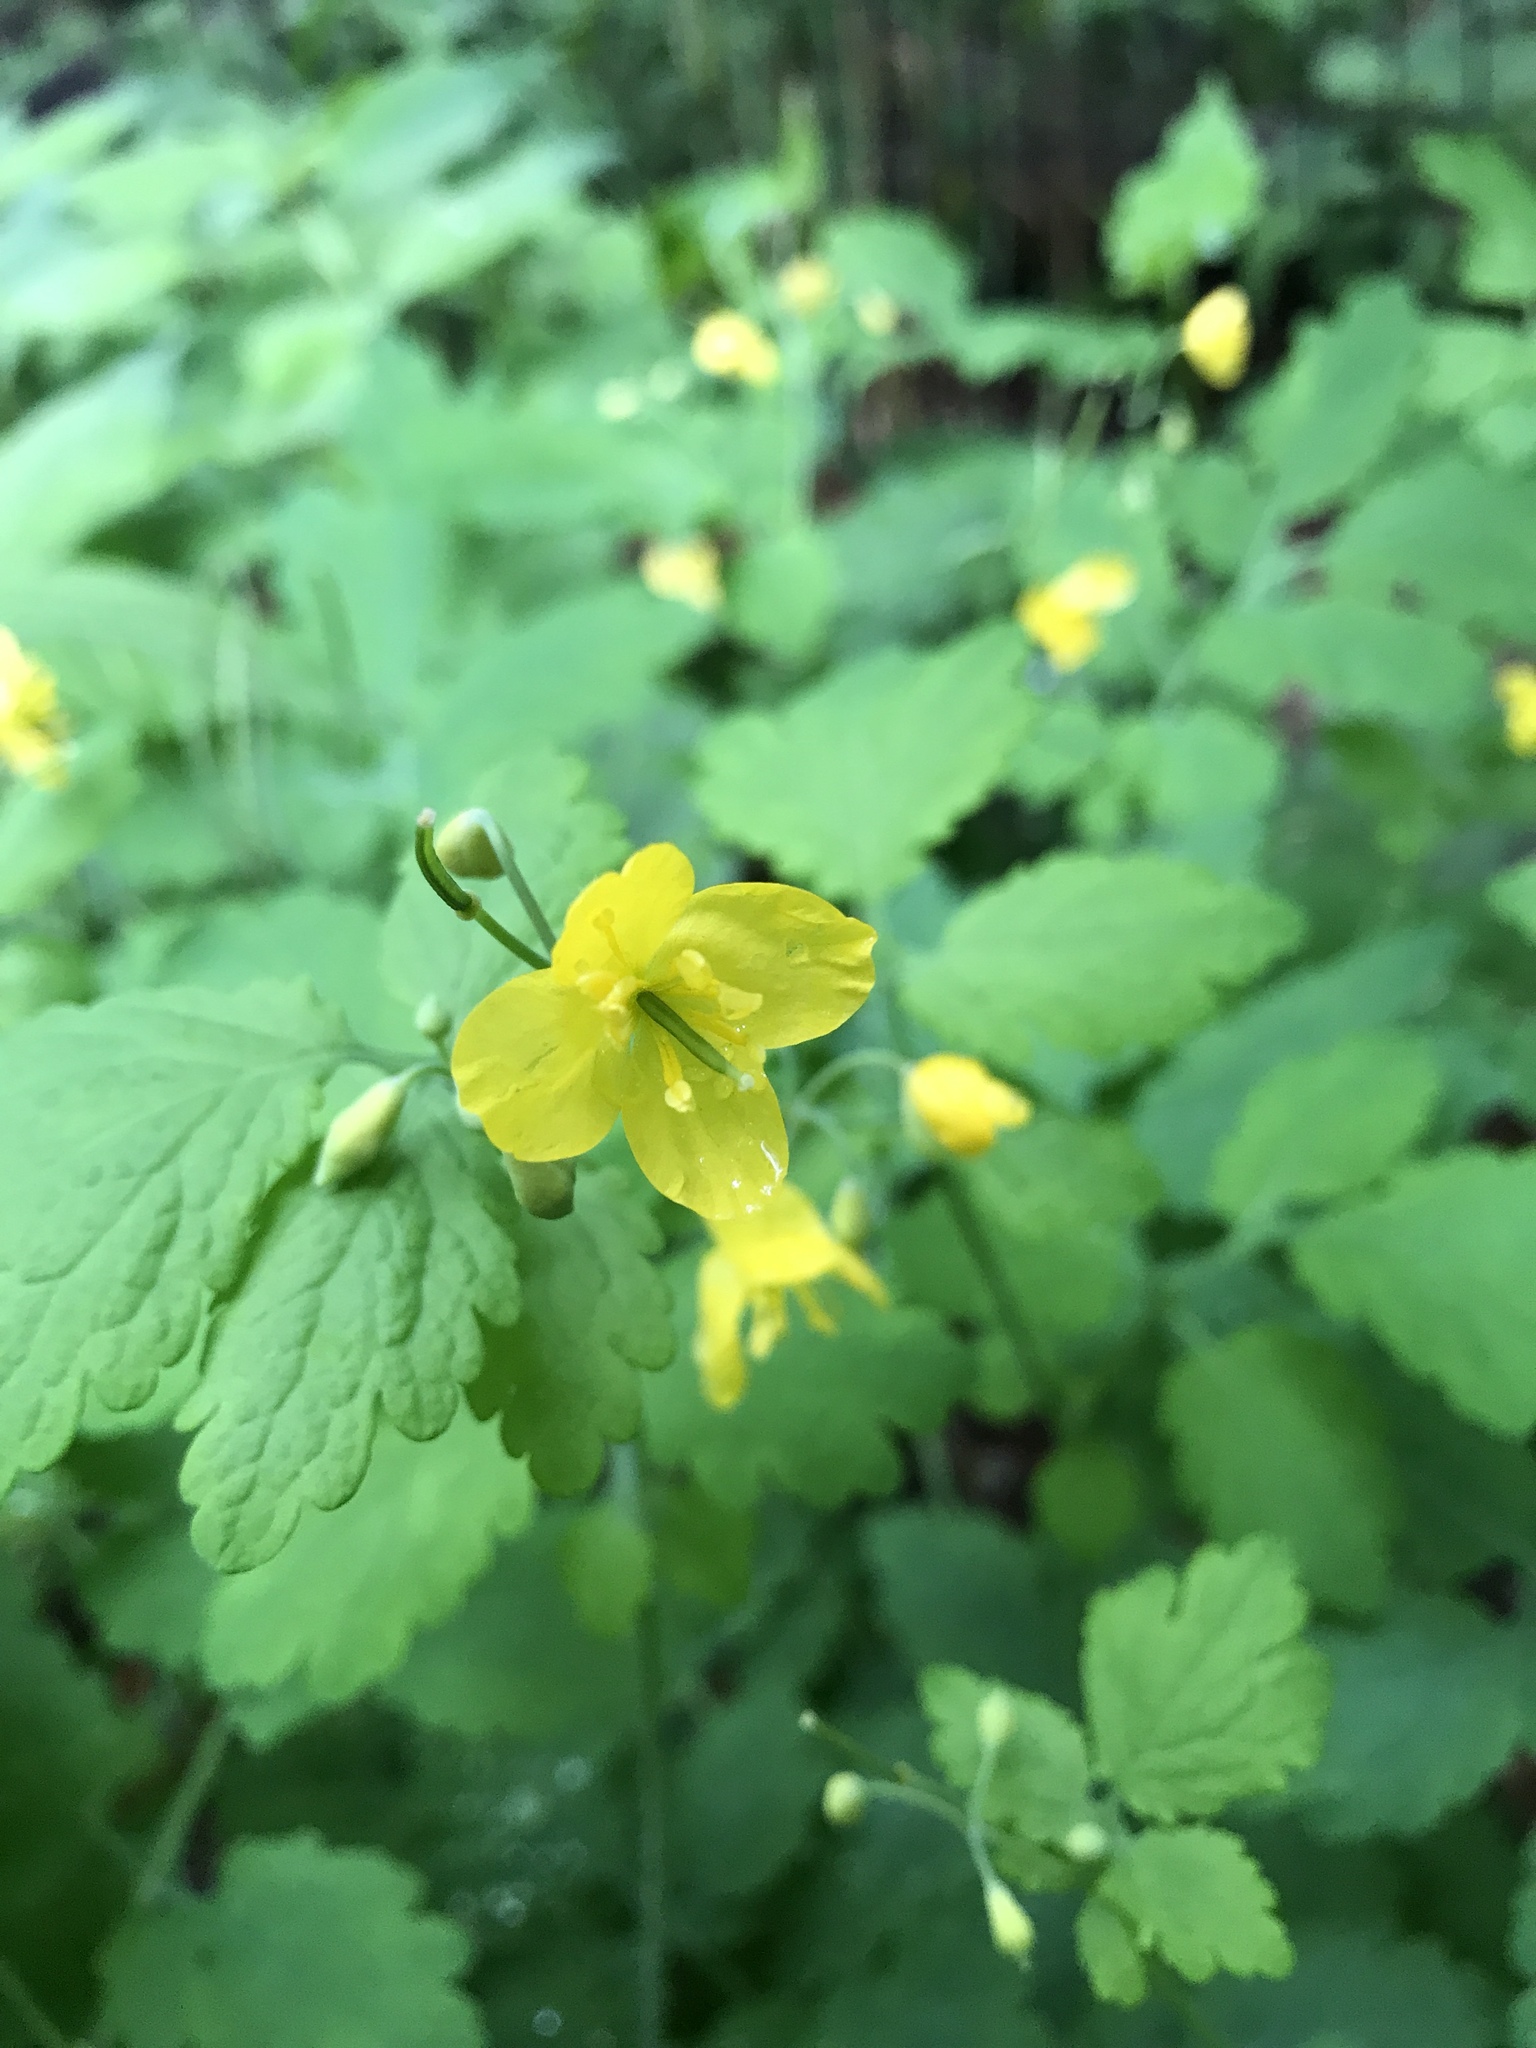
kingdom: Plantae
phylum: Tracheophyta
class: Magnoliopsida
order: Ranunculales
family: Papaveraceae
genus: Chelidonium
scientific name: Chelidonium majus
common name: Greater celandine
